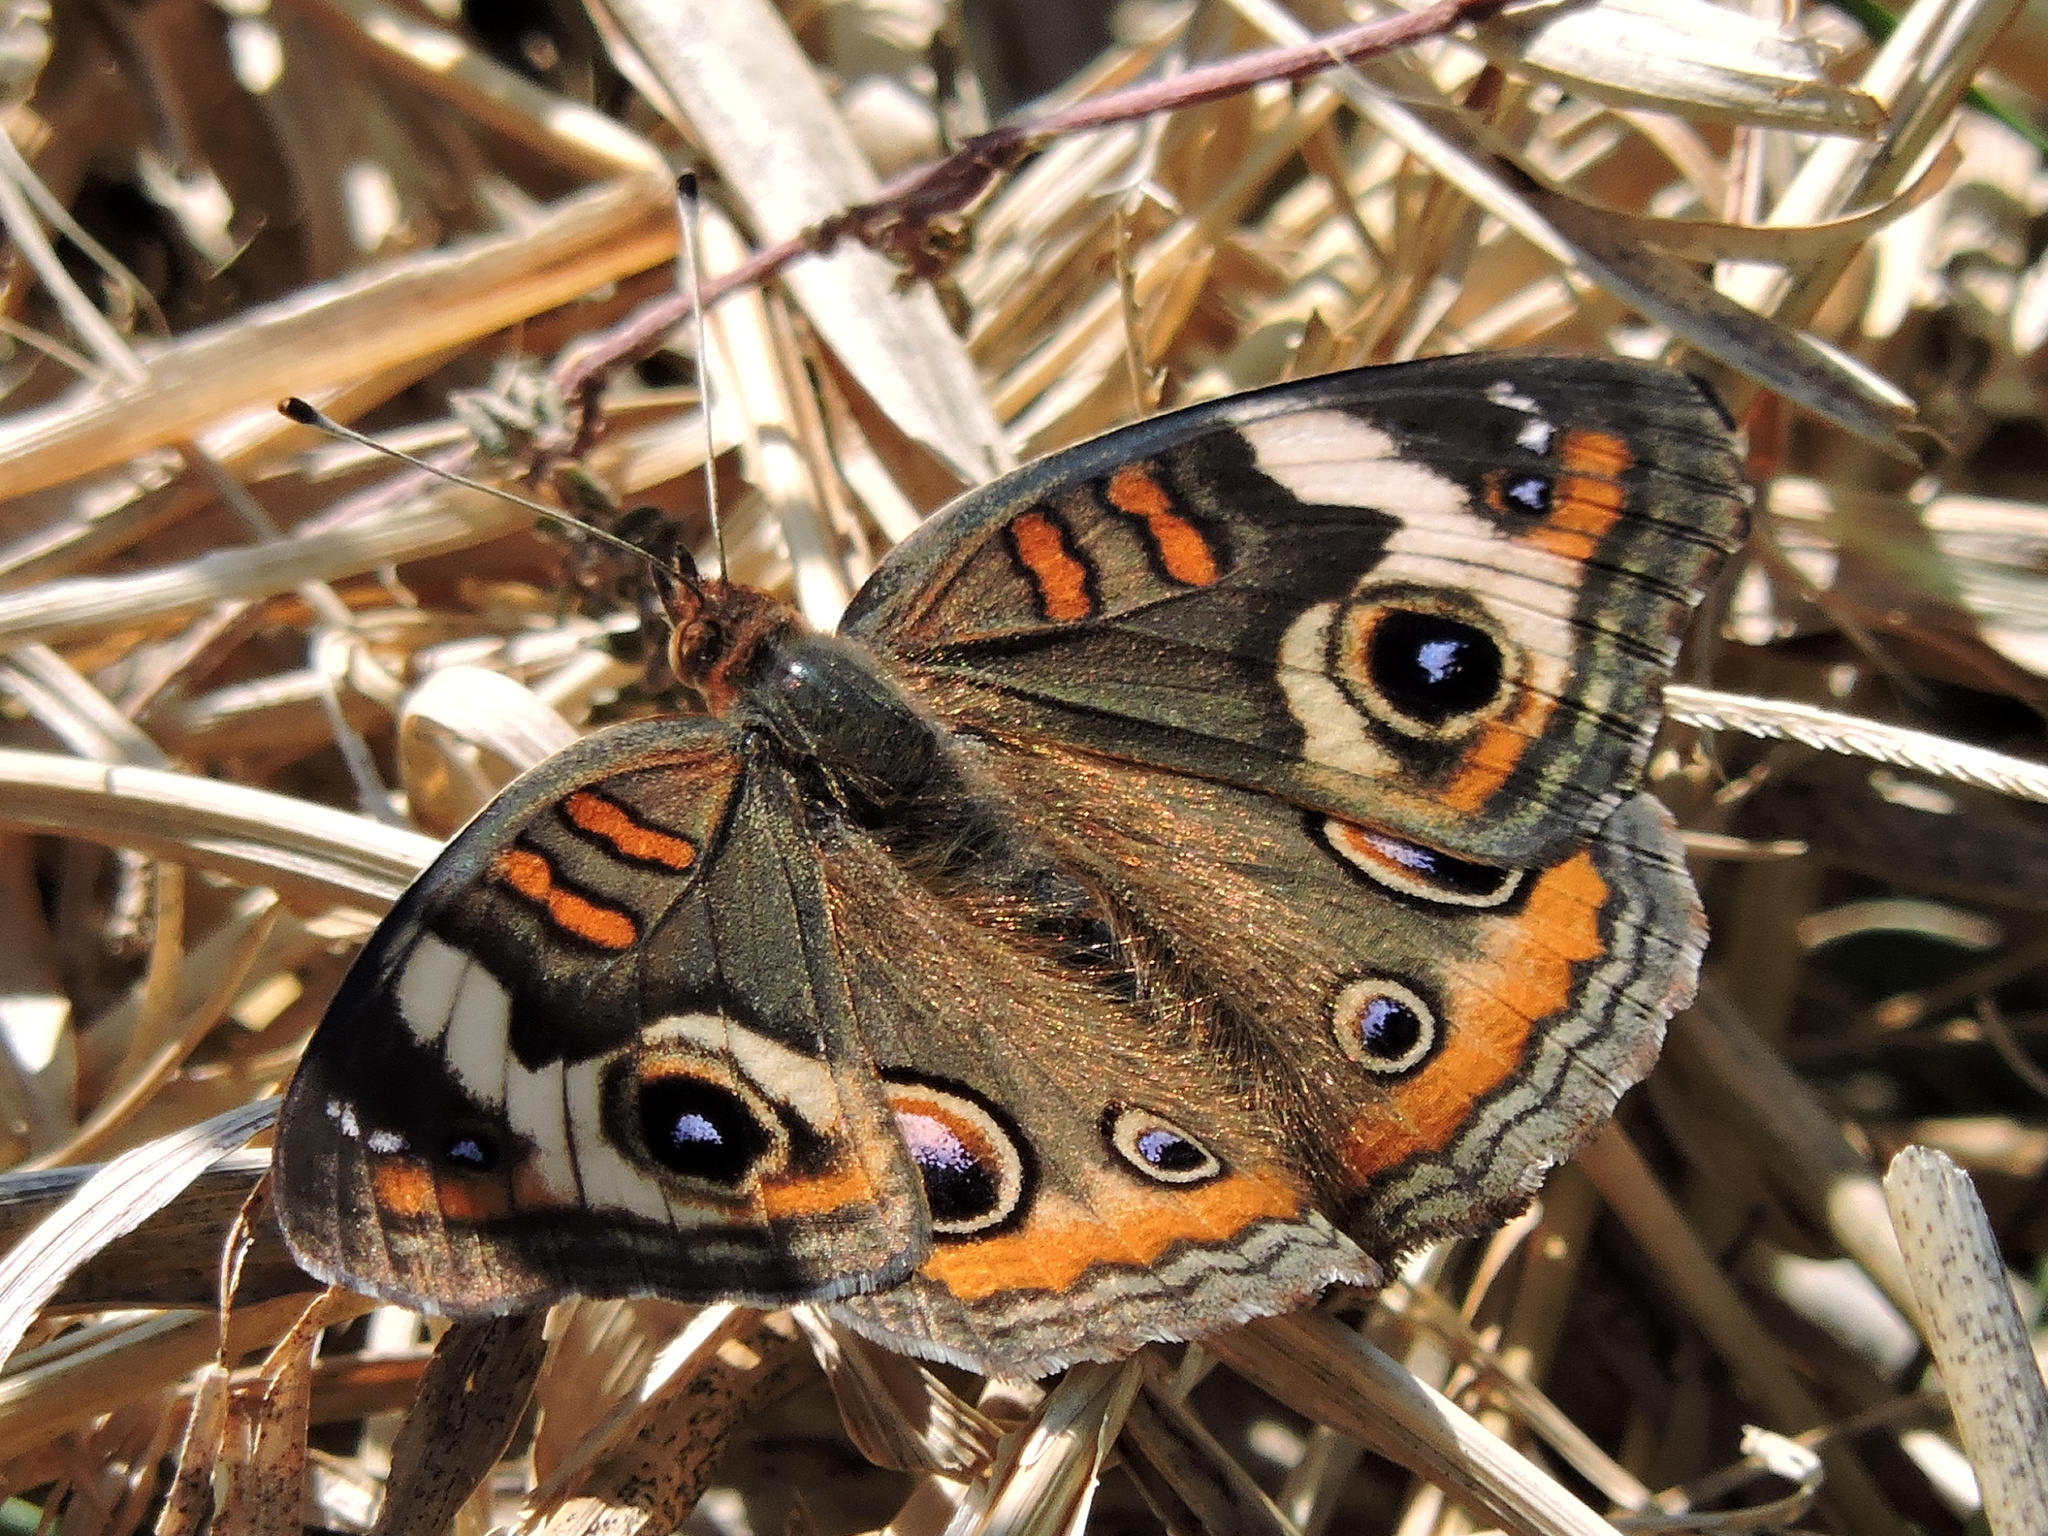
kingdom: Animalia
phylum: Arthropoda
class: Insecta
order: Lepidoptera
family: Nymphalidae
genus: Junonia
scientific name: Junonia coenia
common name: Common buckeye
